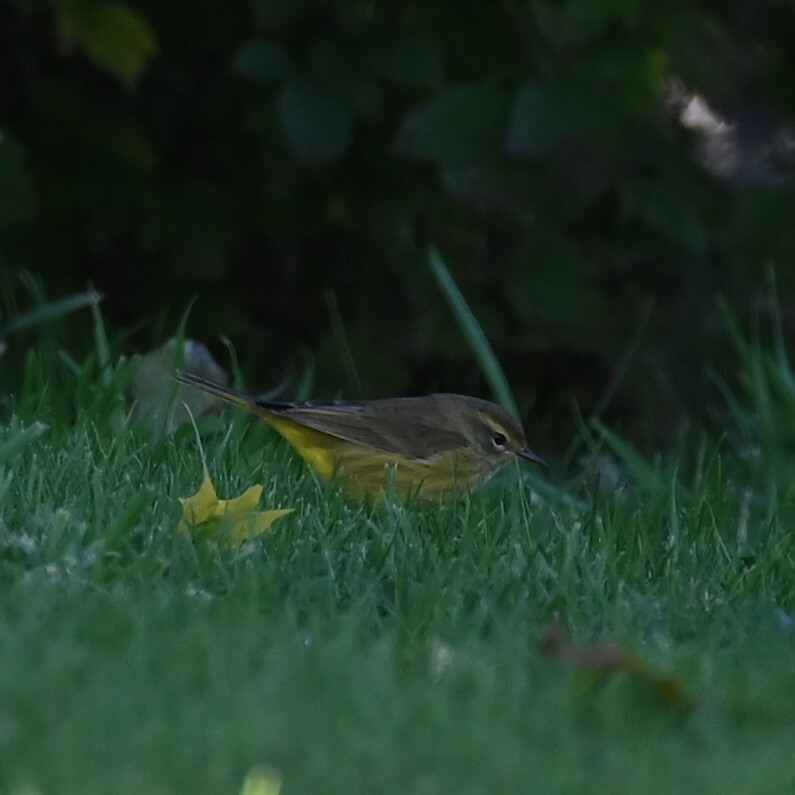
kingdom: Animalia
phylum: Chordata
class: Aves
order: Passeriformes
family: Parulidae
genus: Setophaga
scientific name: Setophaga palmarum
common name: Palm warbler
